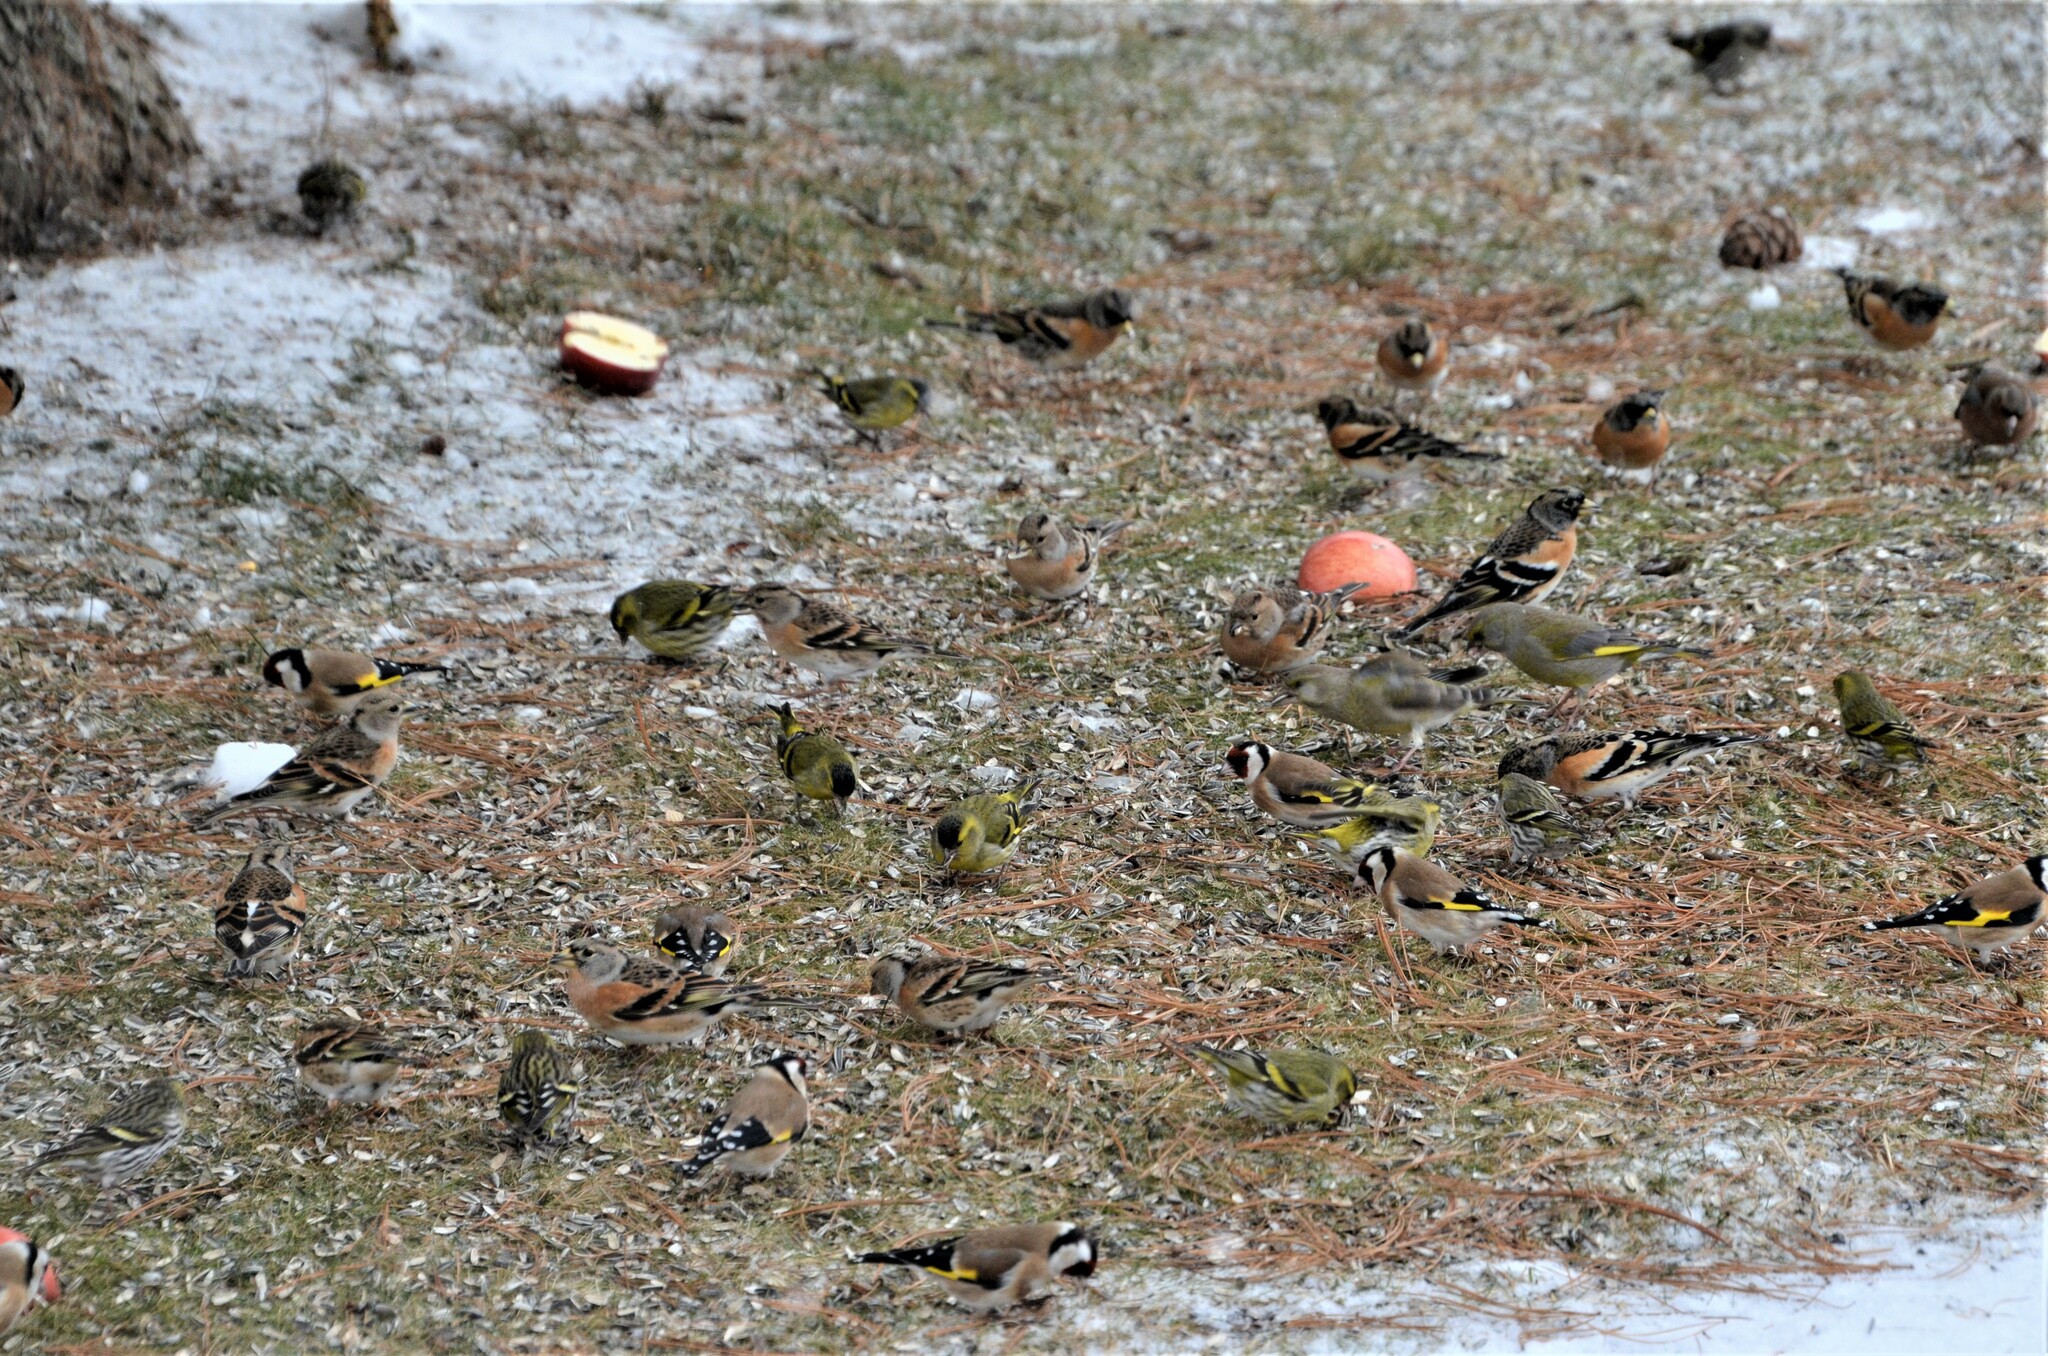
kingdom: Animalia
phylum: Chordata
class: Aves
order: Passeriformes
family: Fringillidae
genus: Spinus
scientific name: Spinus spinus
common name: Eurasian siskin
